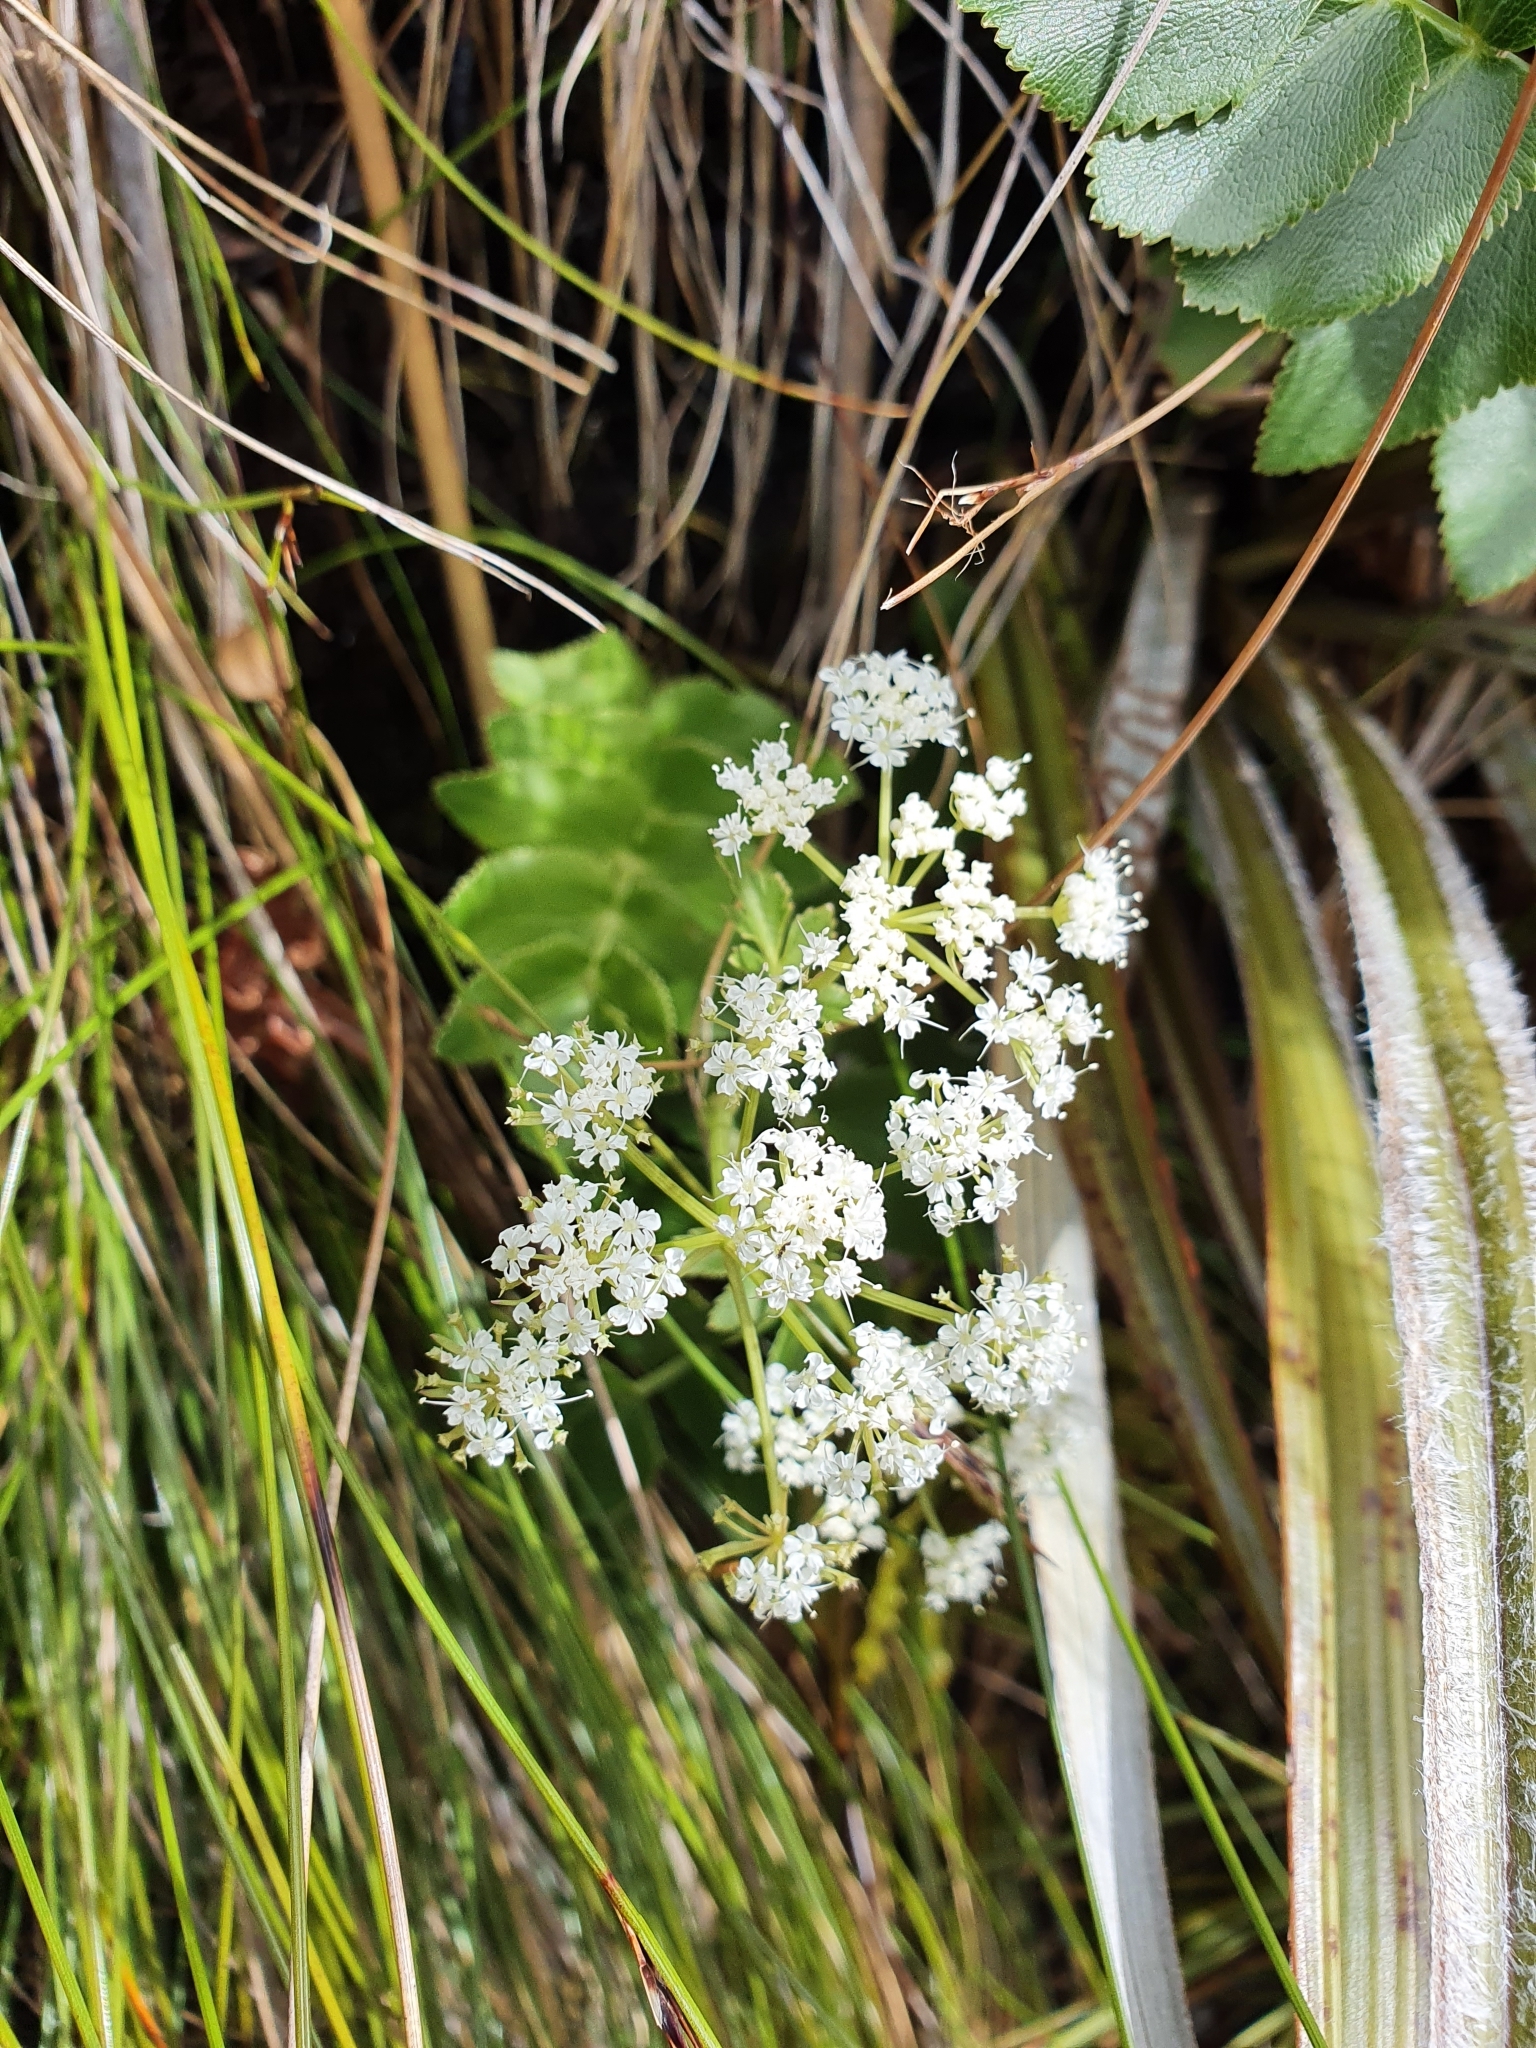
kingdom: Plantae
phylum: Tracheophyta
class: Magnoliopsida
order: Apiales
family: Apiaceae
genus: Gingidia
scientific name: Gingidia montana
